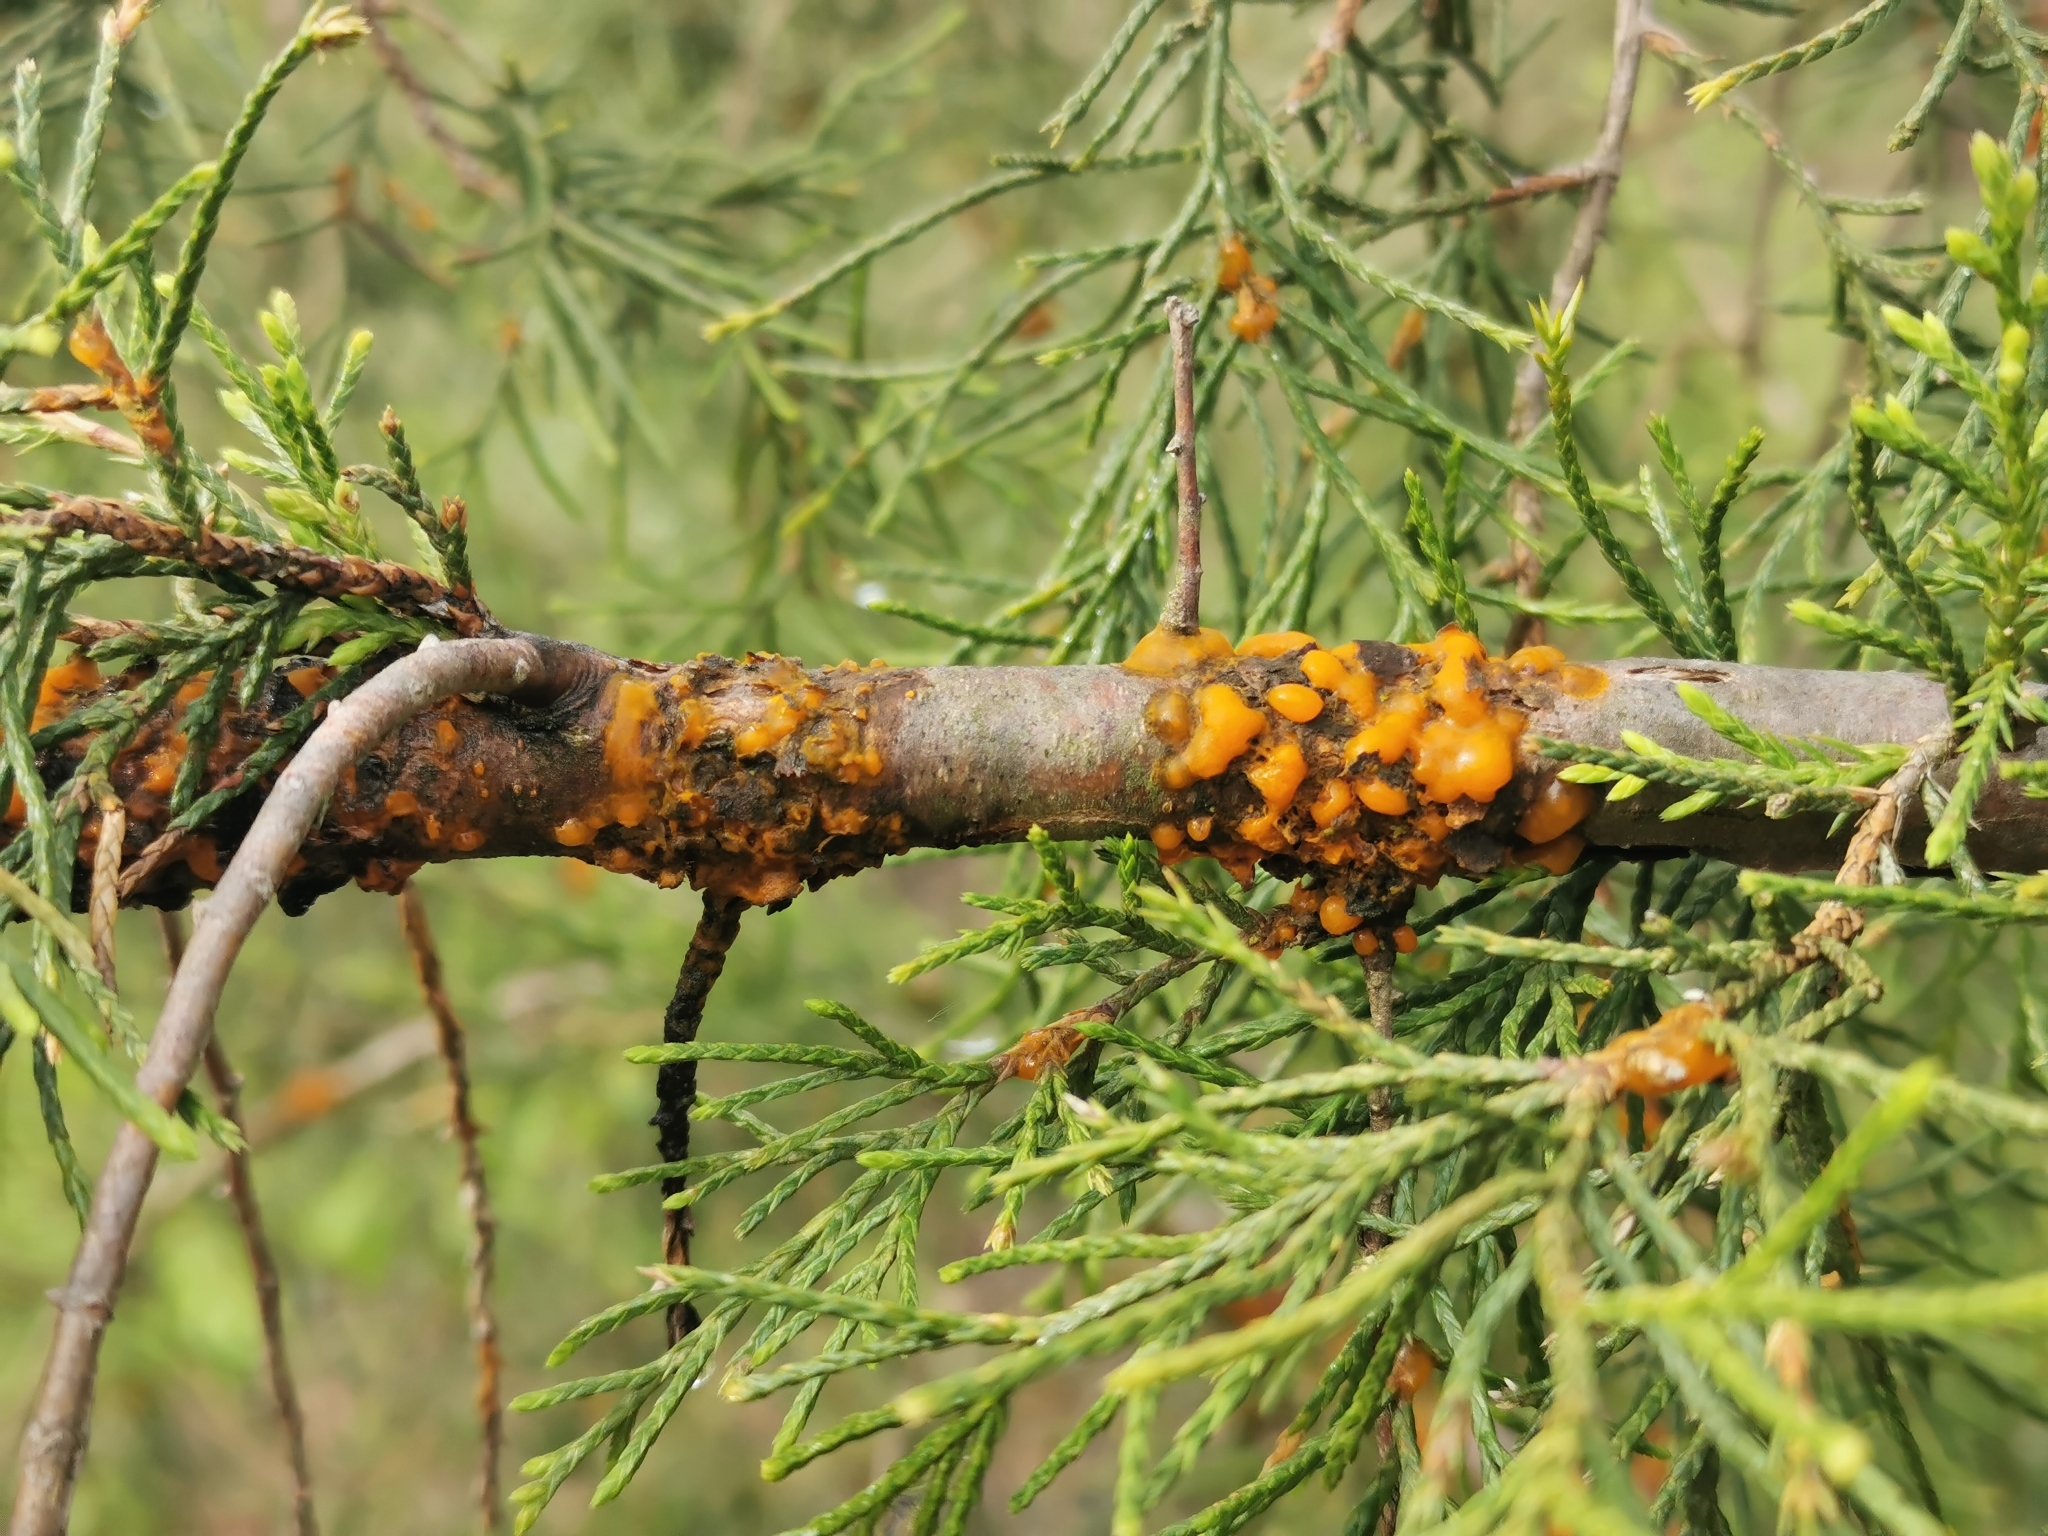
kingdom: Fungi
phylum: Basidiomycota
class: Pucciniomycetes
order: Pucciniales
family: Gymnosporangiaceae
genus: Gymnosporangium
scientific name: Gymnosporangium juniperi-virginianae
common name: Juniper-apple rust
